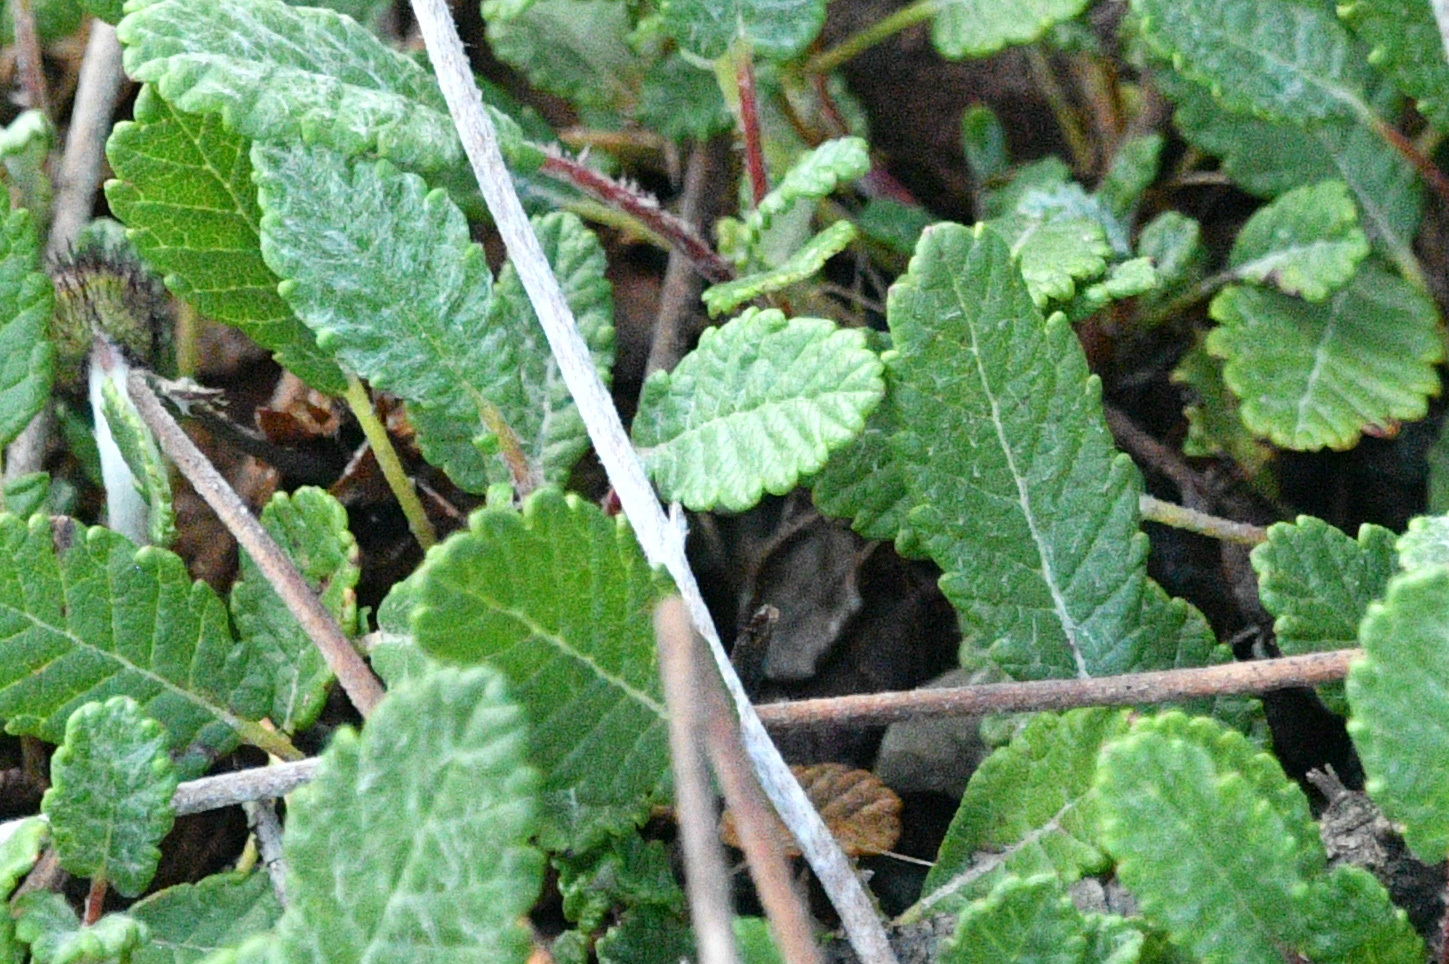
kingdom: Plantae
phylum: Tracheophyta
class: Magnoliopsida
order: Rosales
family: Rosaceae
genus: Dryas
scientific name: Dryas drummondii
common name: Drummond's dryad
